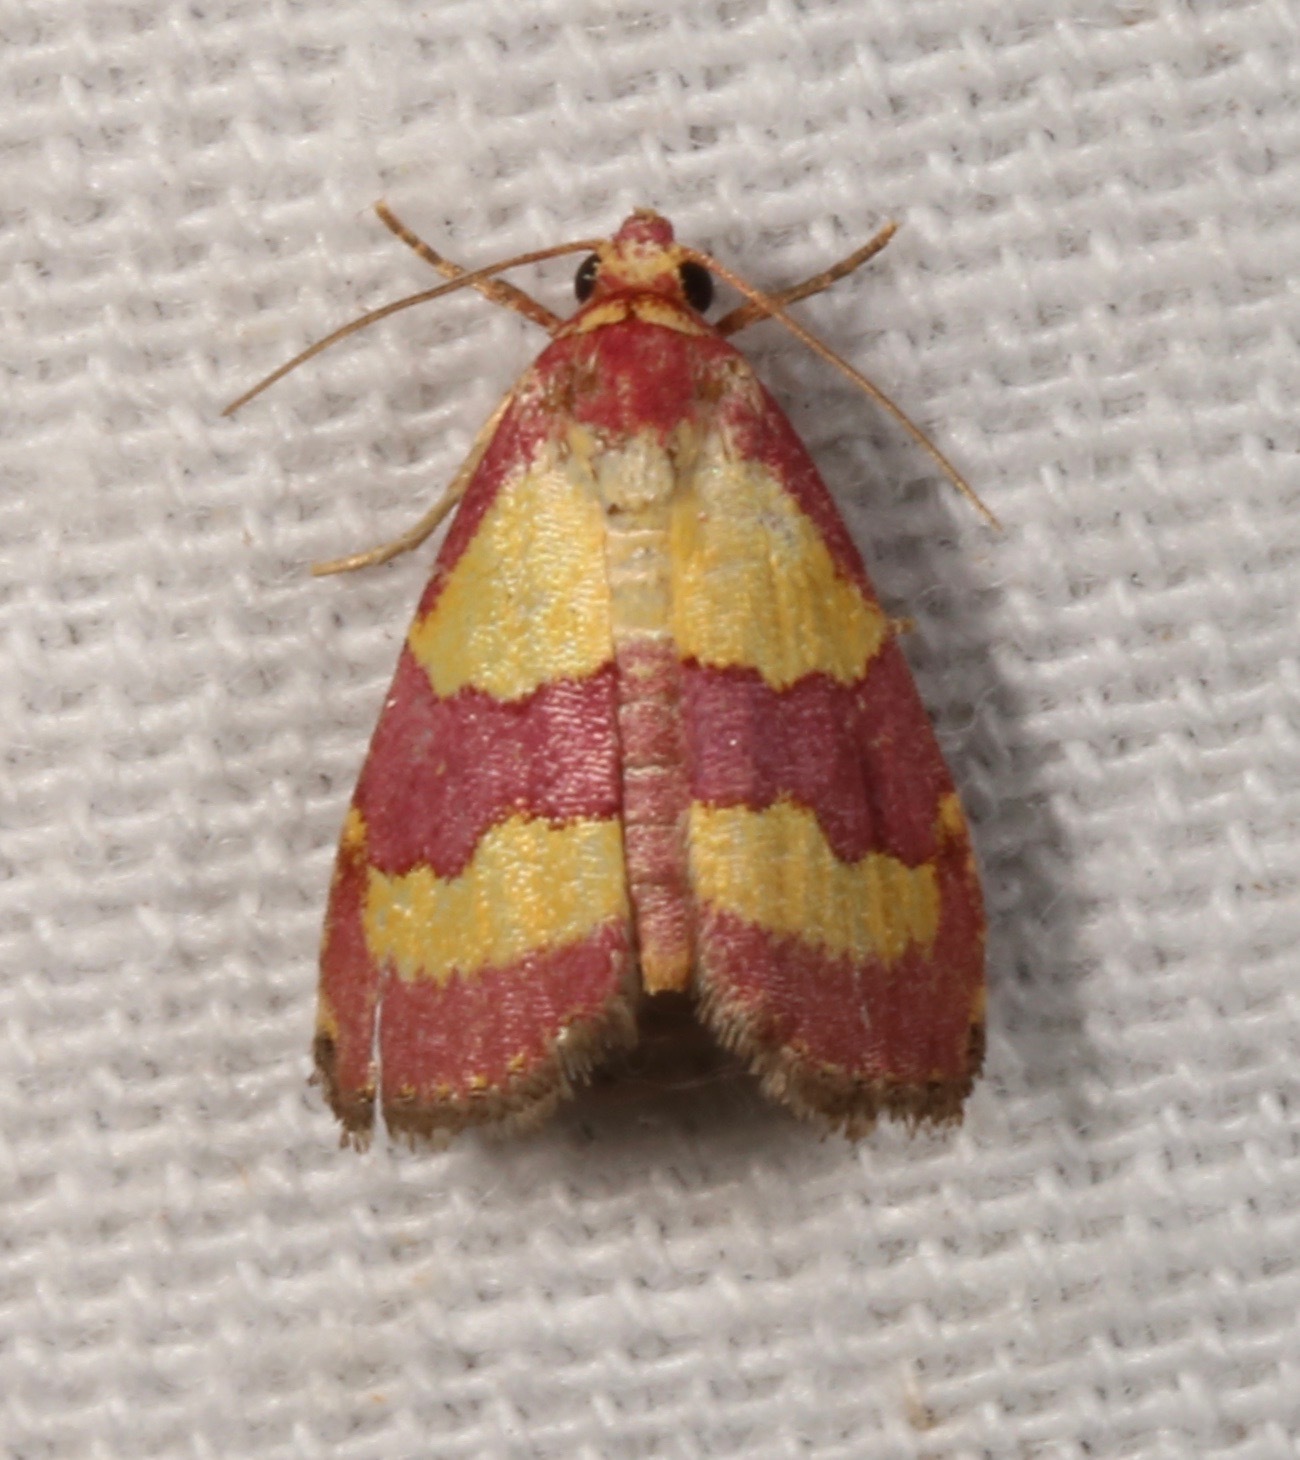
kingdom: Animalia
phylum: Arthropoda
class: Insecta
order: Lepidoptera
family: Noctuidae
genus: Phoenicophanta
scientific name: Phoenicophanta bicolor
